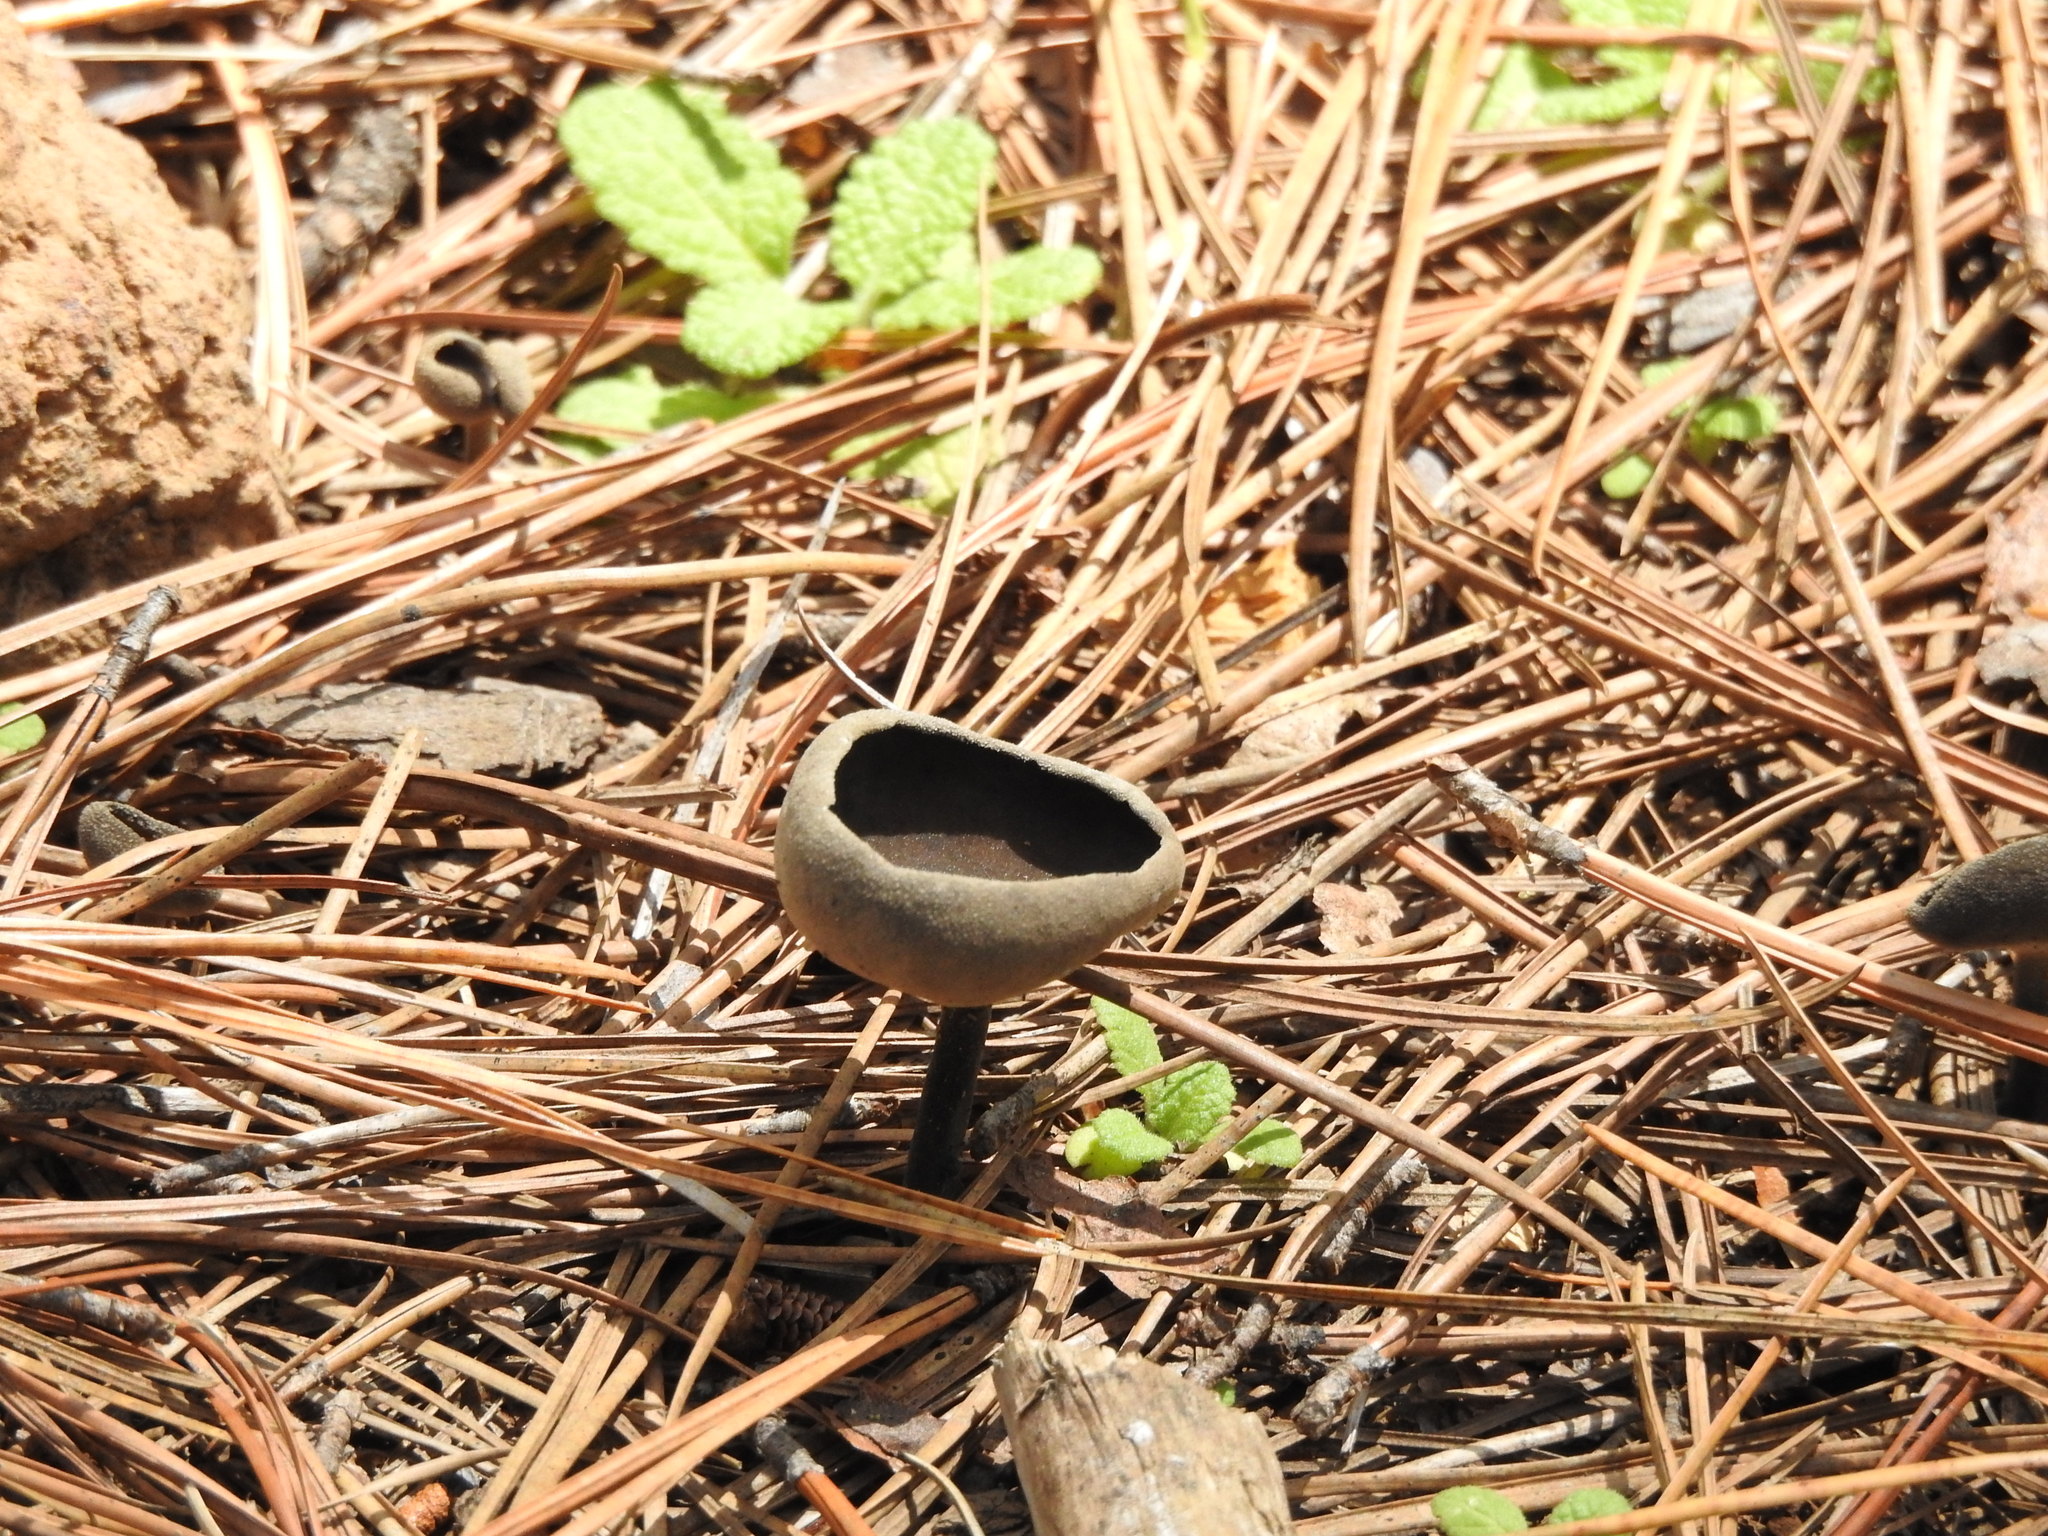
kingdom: Fungi
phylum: Ascomycota
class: Pezizomycetes
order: Pezizales
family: Helvellaceae
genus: Helvella
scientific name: Helvella macropus
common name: Felt saddle
